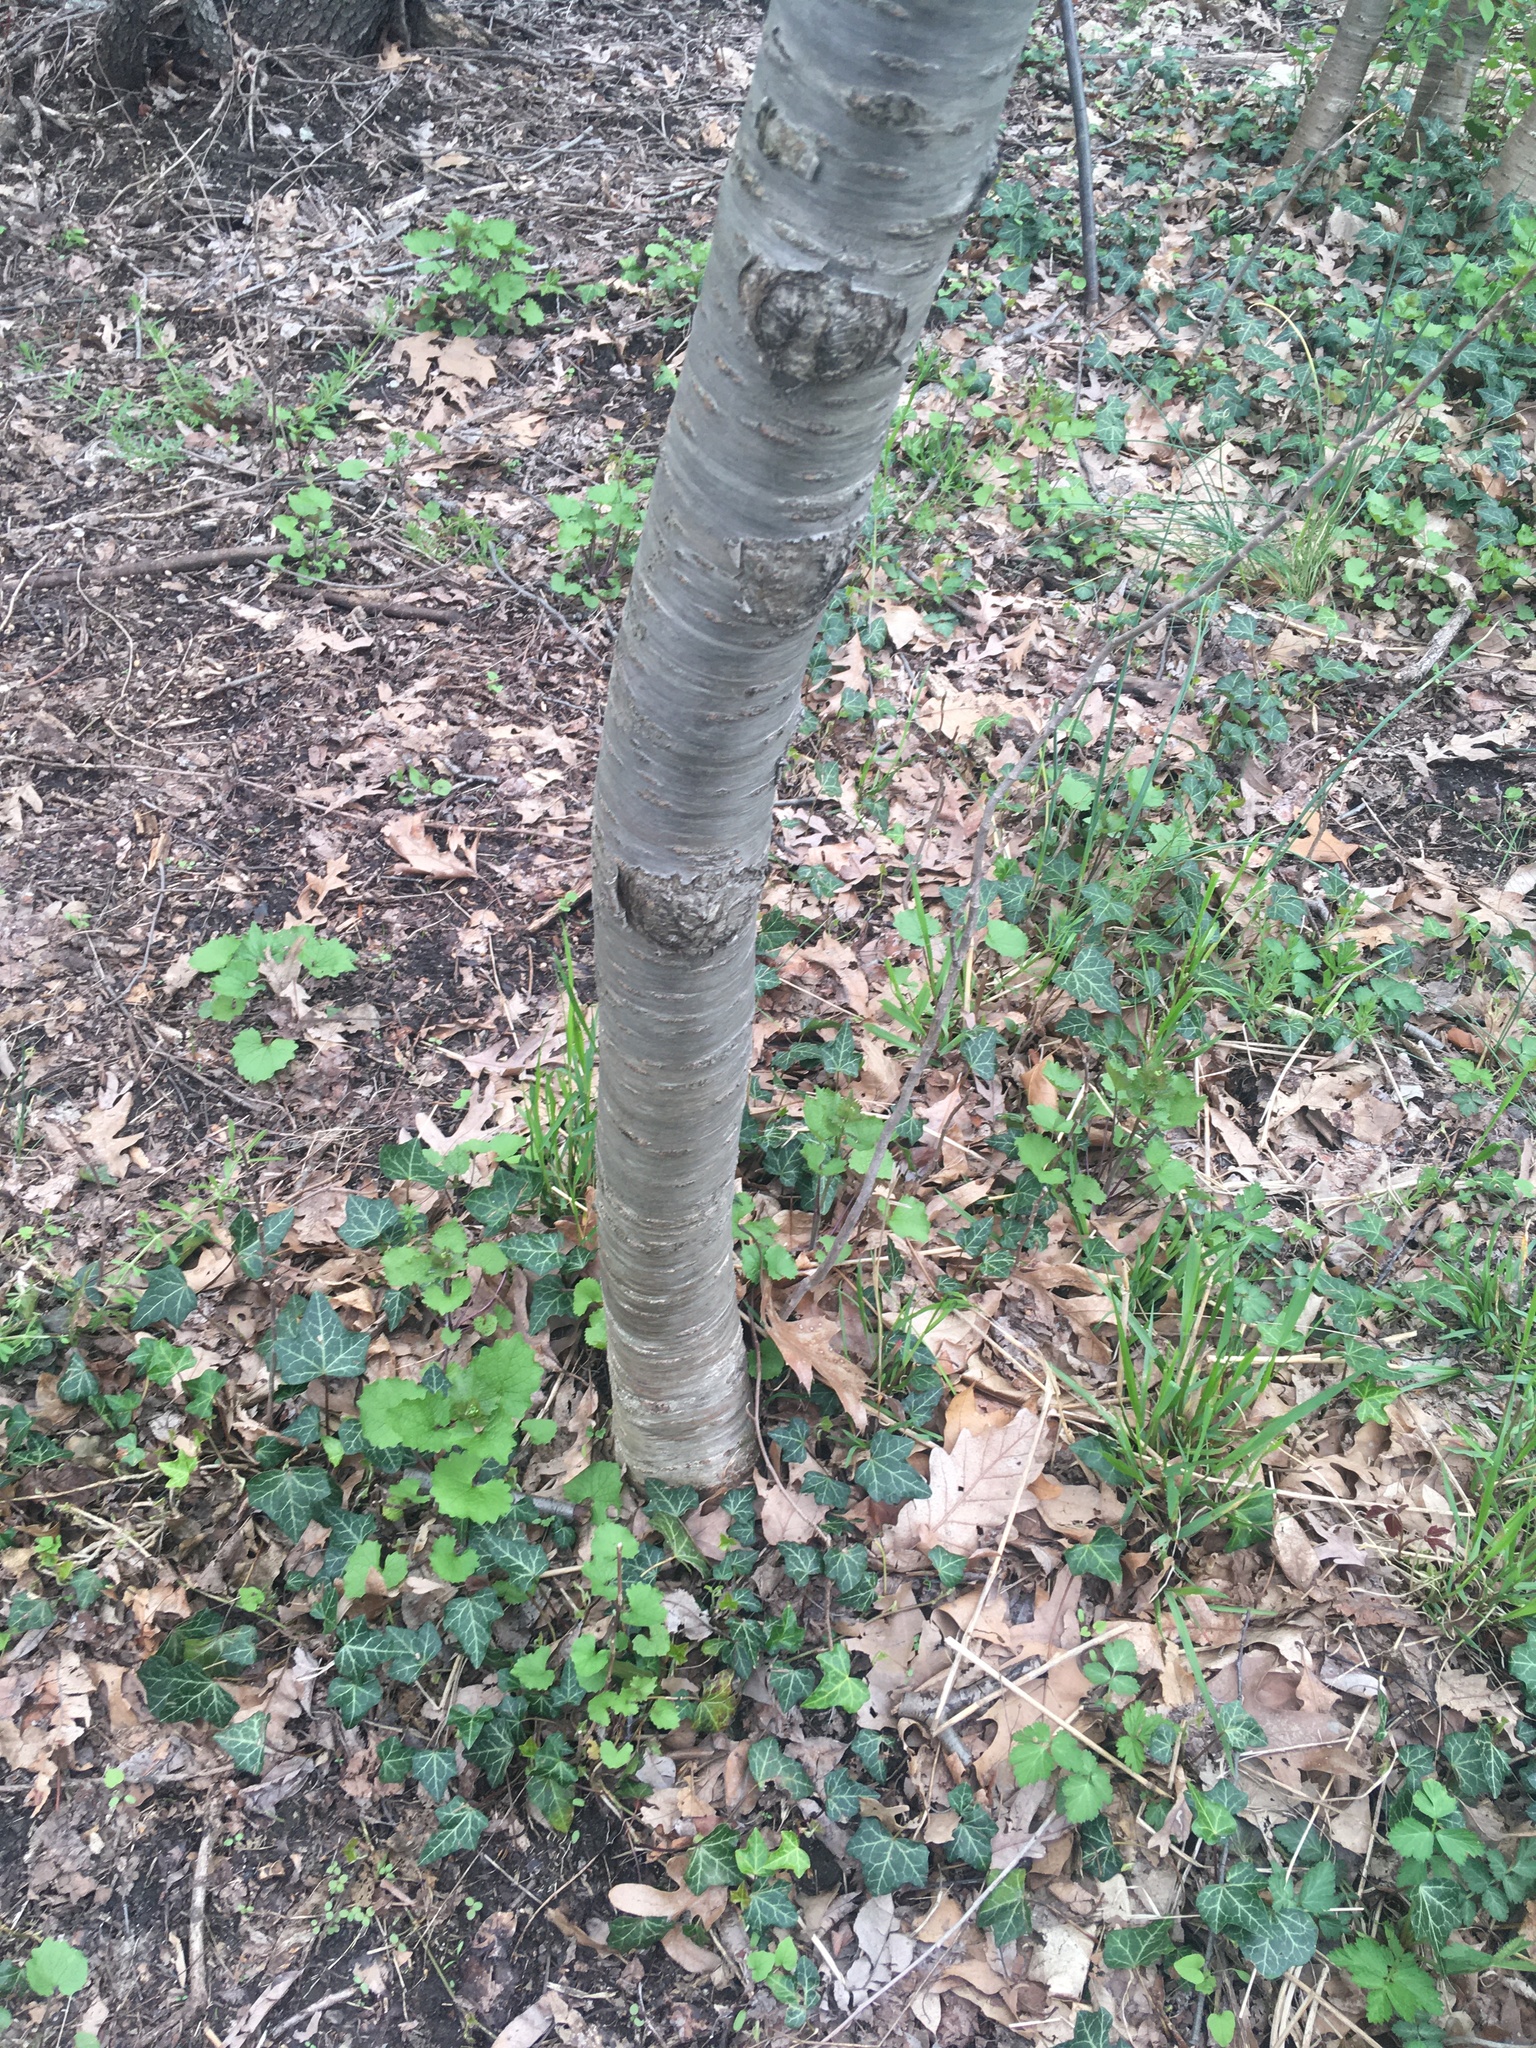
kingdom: Plantae
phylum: Tracheophyta
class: Magnoliopsida
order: Rosales
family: Rosaceae
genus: Prunus
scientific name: Prunus avium
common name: Sweet cherry
